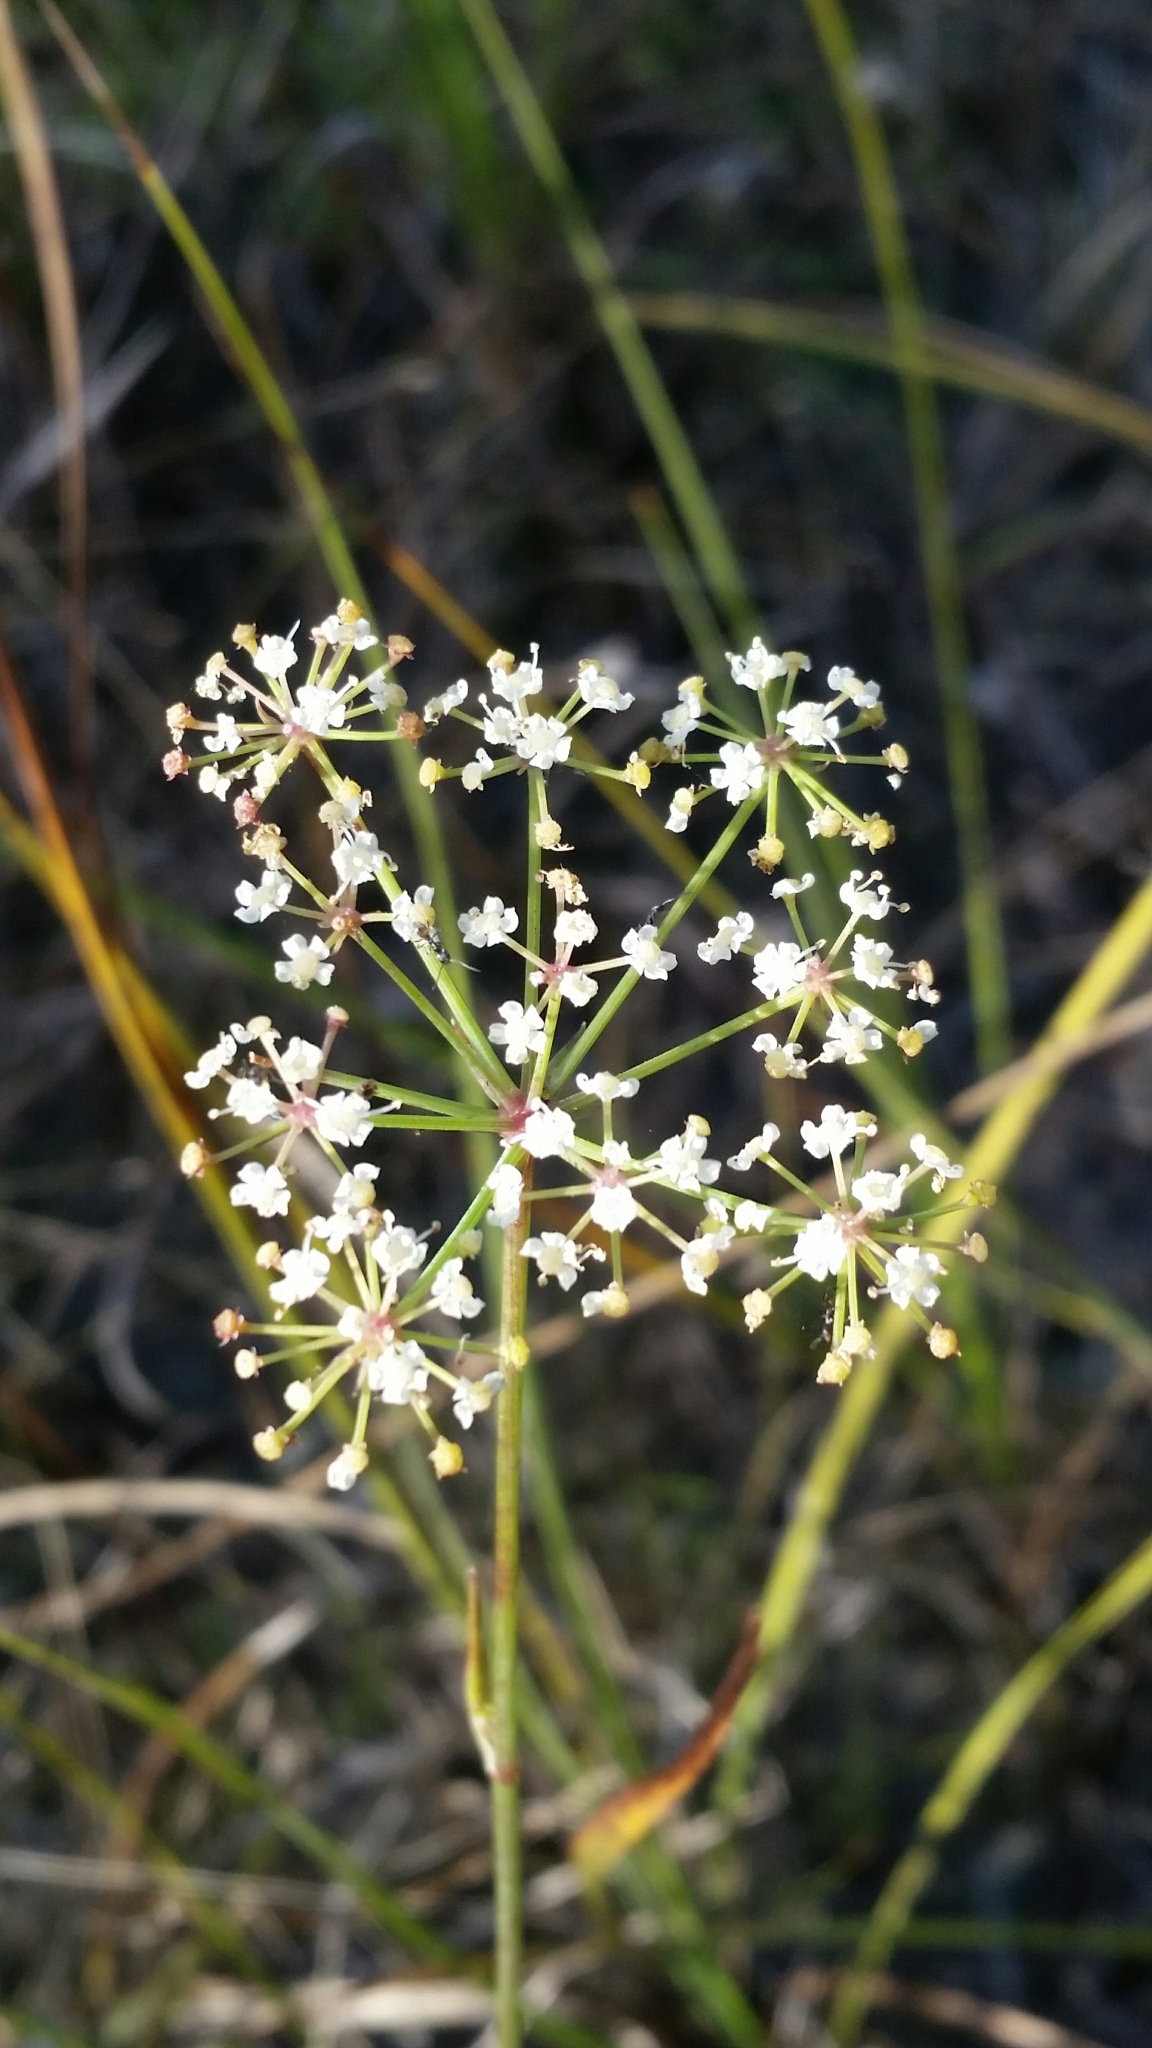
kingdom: Plantae
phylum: Tracheophyta
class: Magnoliopsida
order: Apiales
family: Apiaceae
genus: Tiedemannia
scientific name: Tiedemannia filiformis
